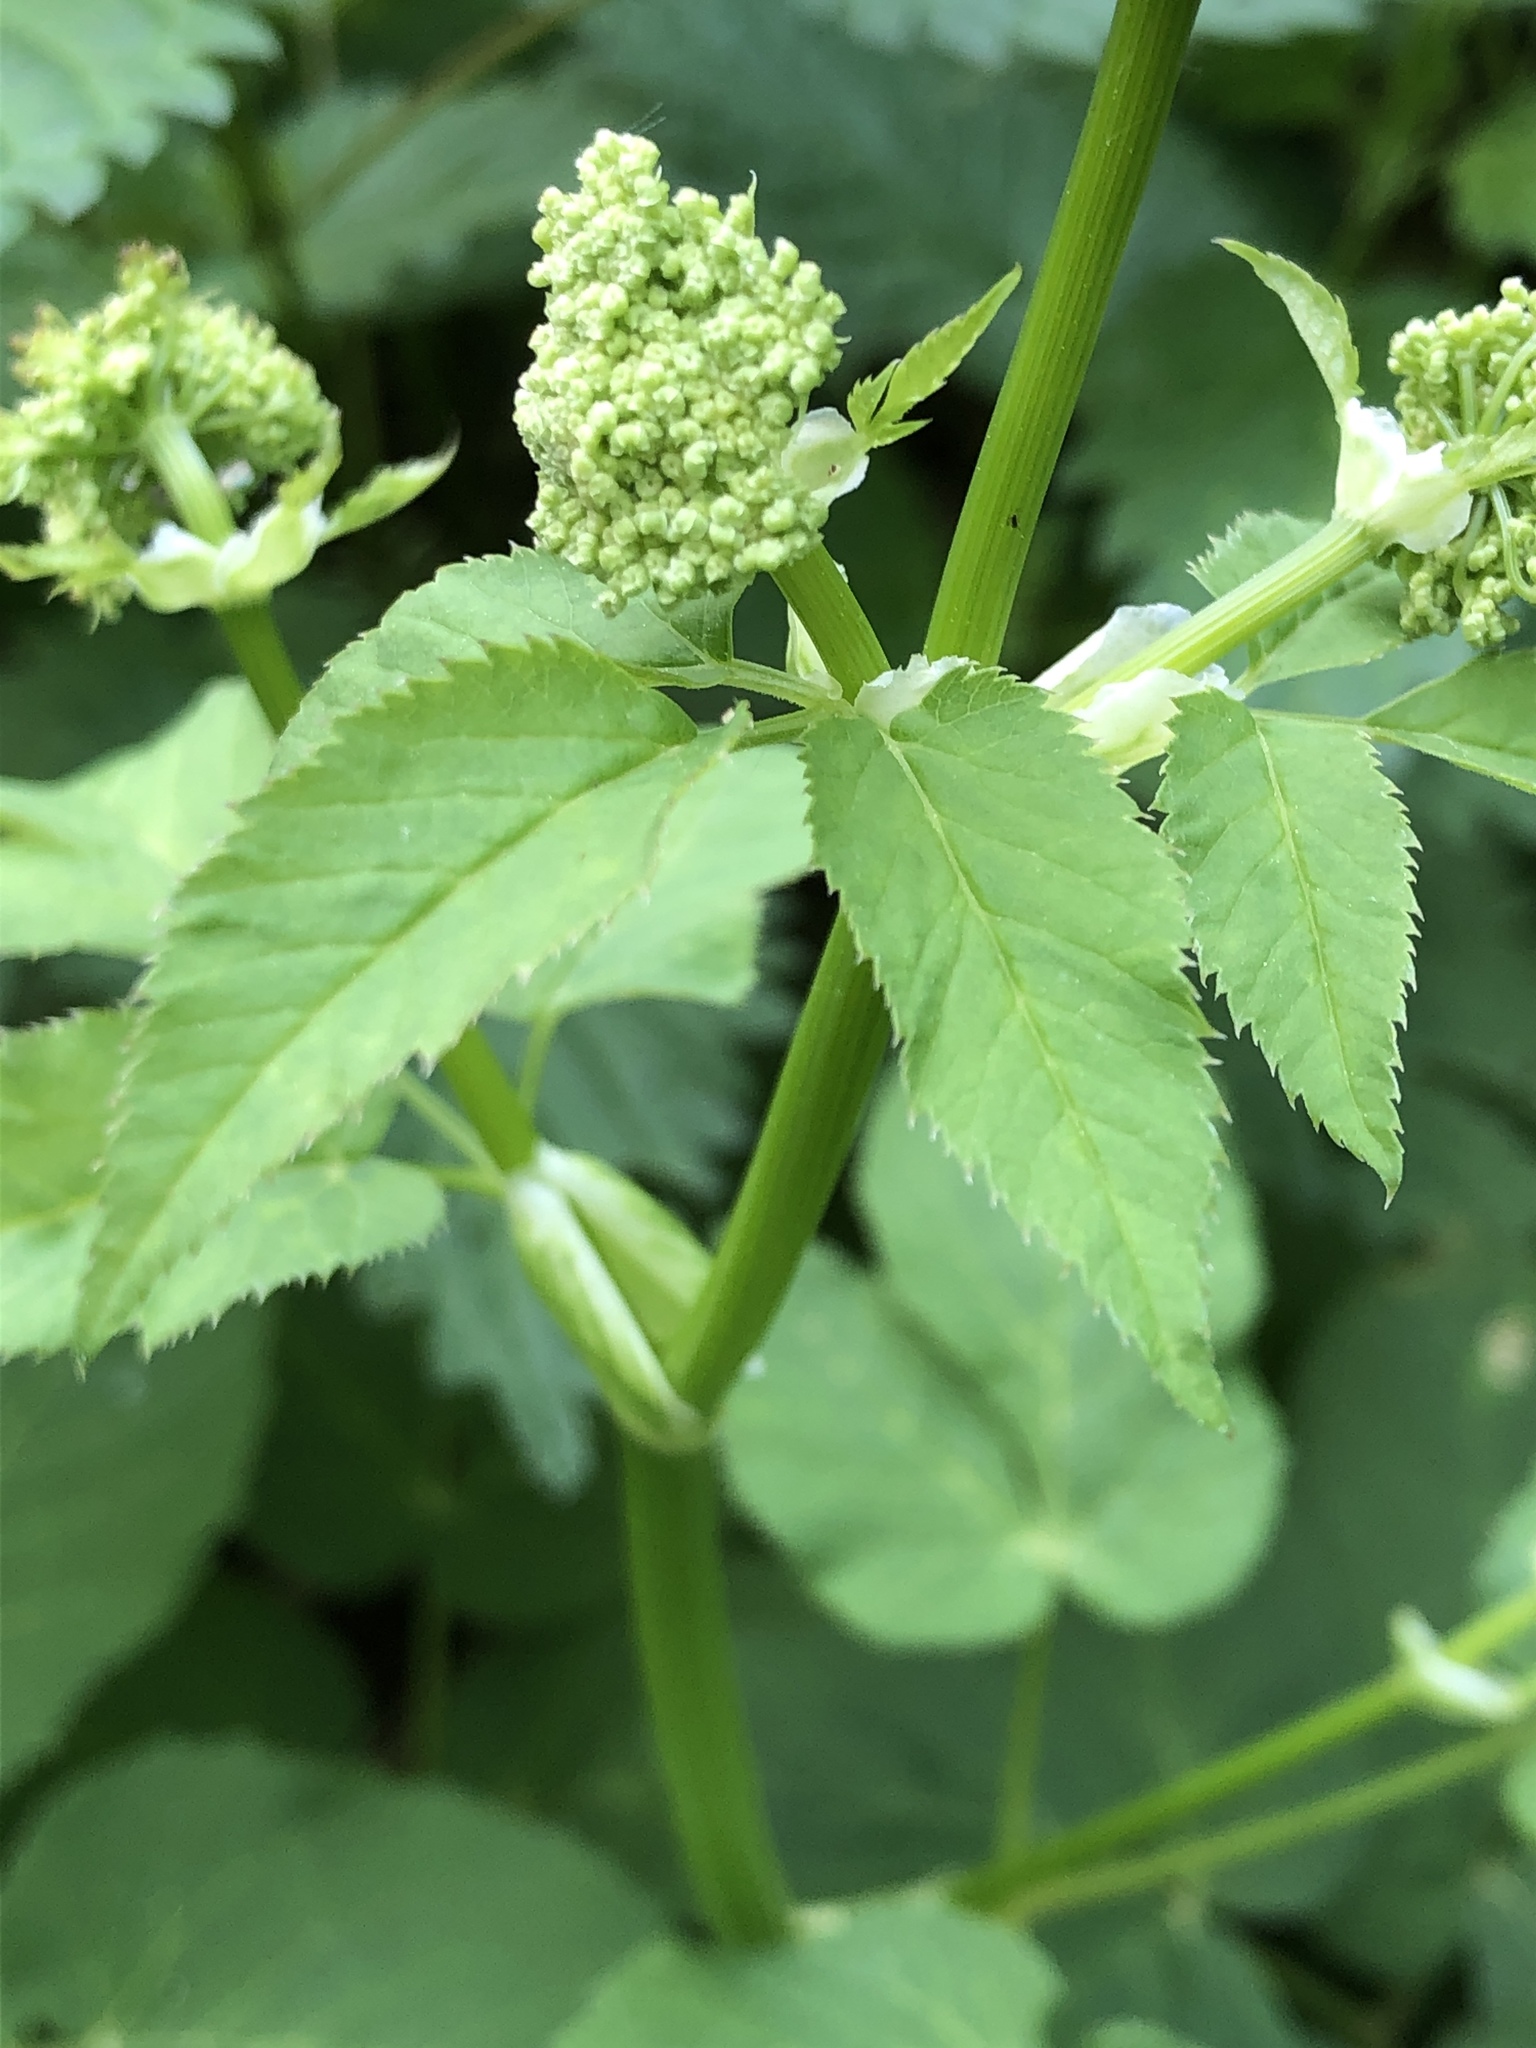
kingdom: Plantae
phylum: Tracheophyta
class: Magnoliopsida
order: Apiales
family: Apiaceae
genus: Aegopodium
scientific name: Aegopodium podagraria
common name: Ground-elder
